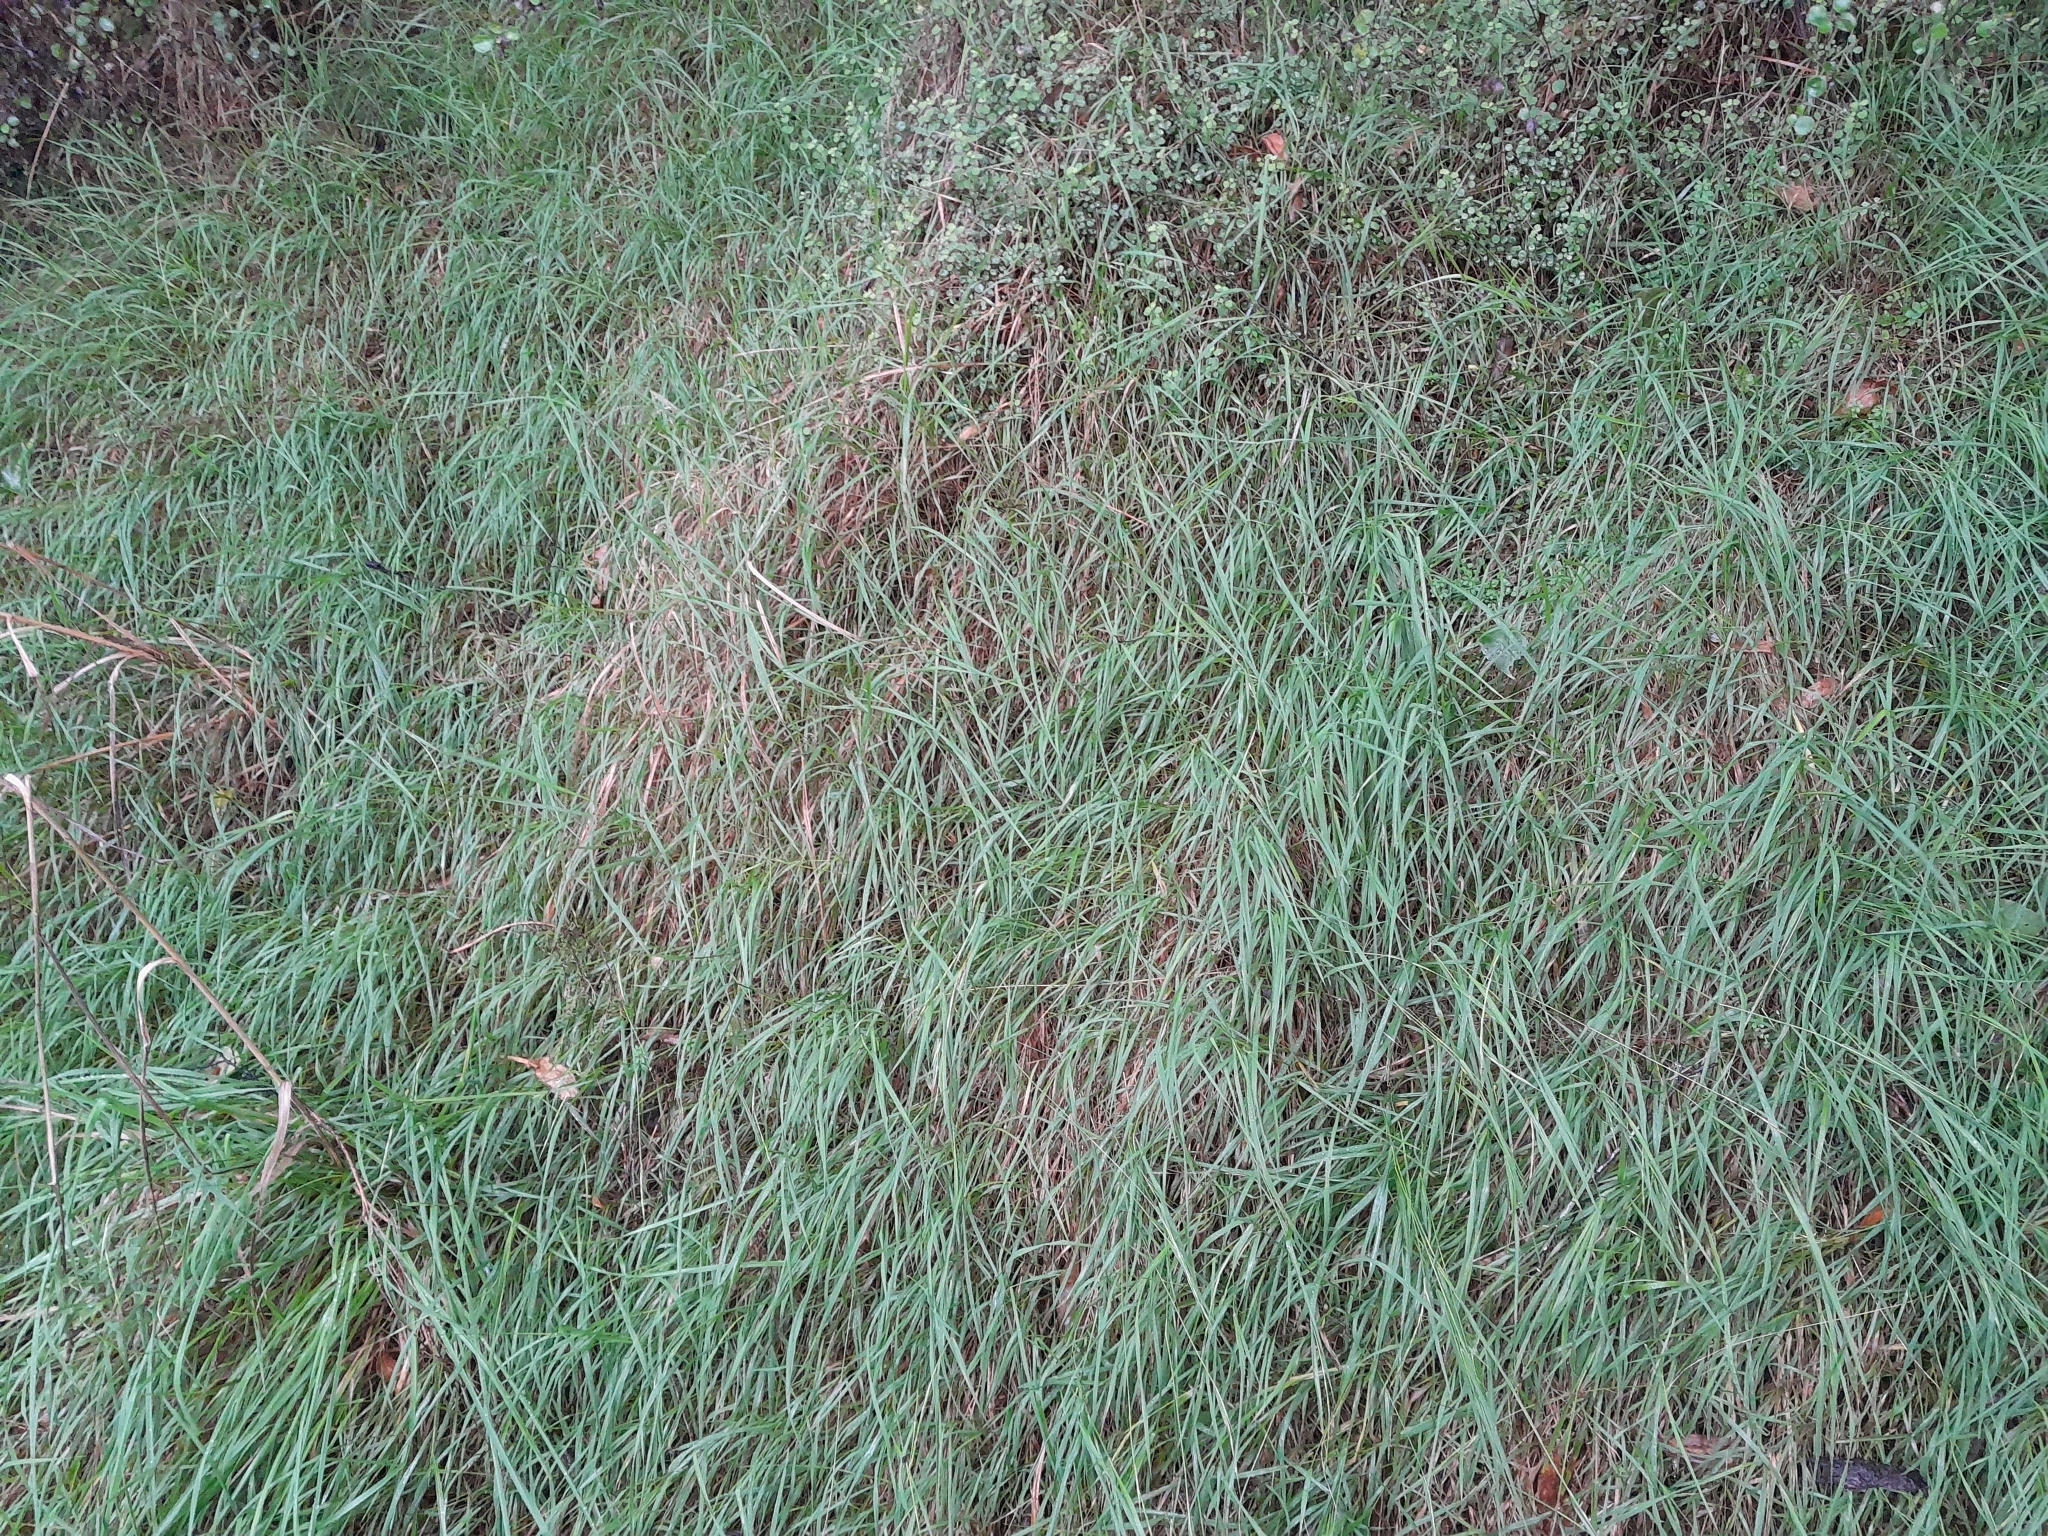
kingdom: Plantae
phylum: Tracheophyta
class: Liliopsida
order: Poales
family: Poaceae
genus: Microlaena
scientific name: Microlaena stipoides
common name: Meadow ricegrass
